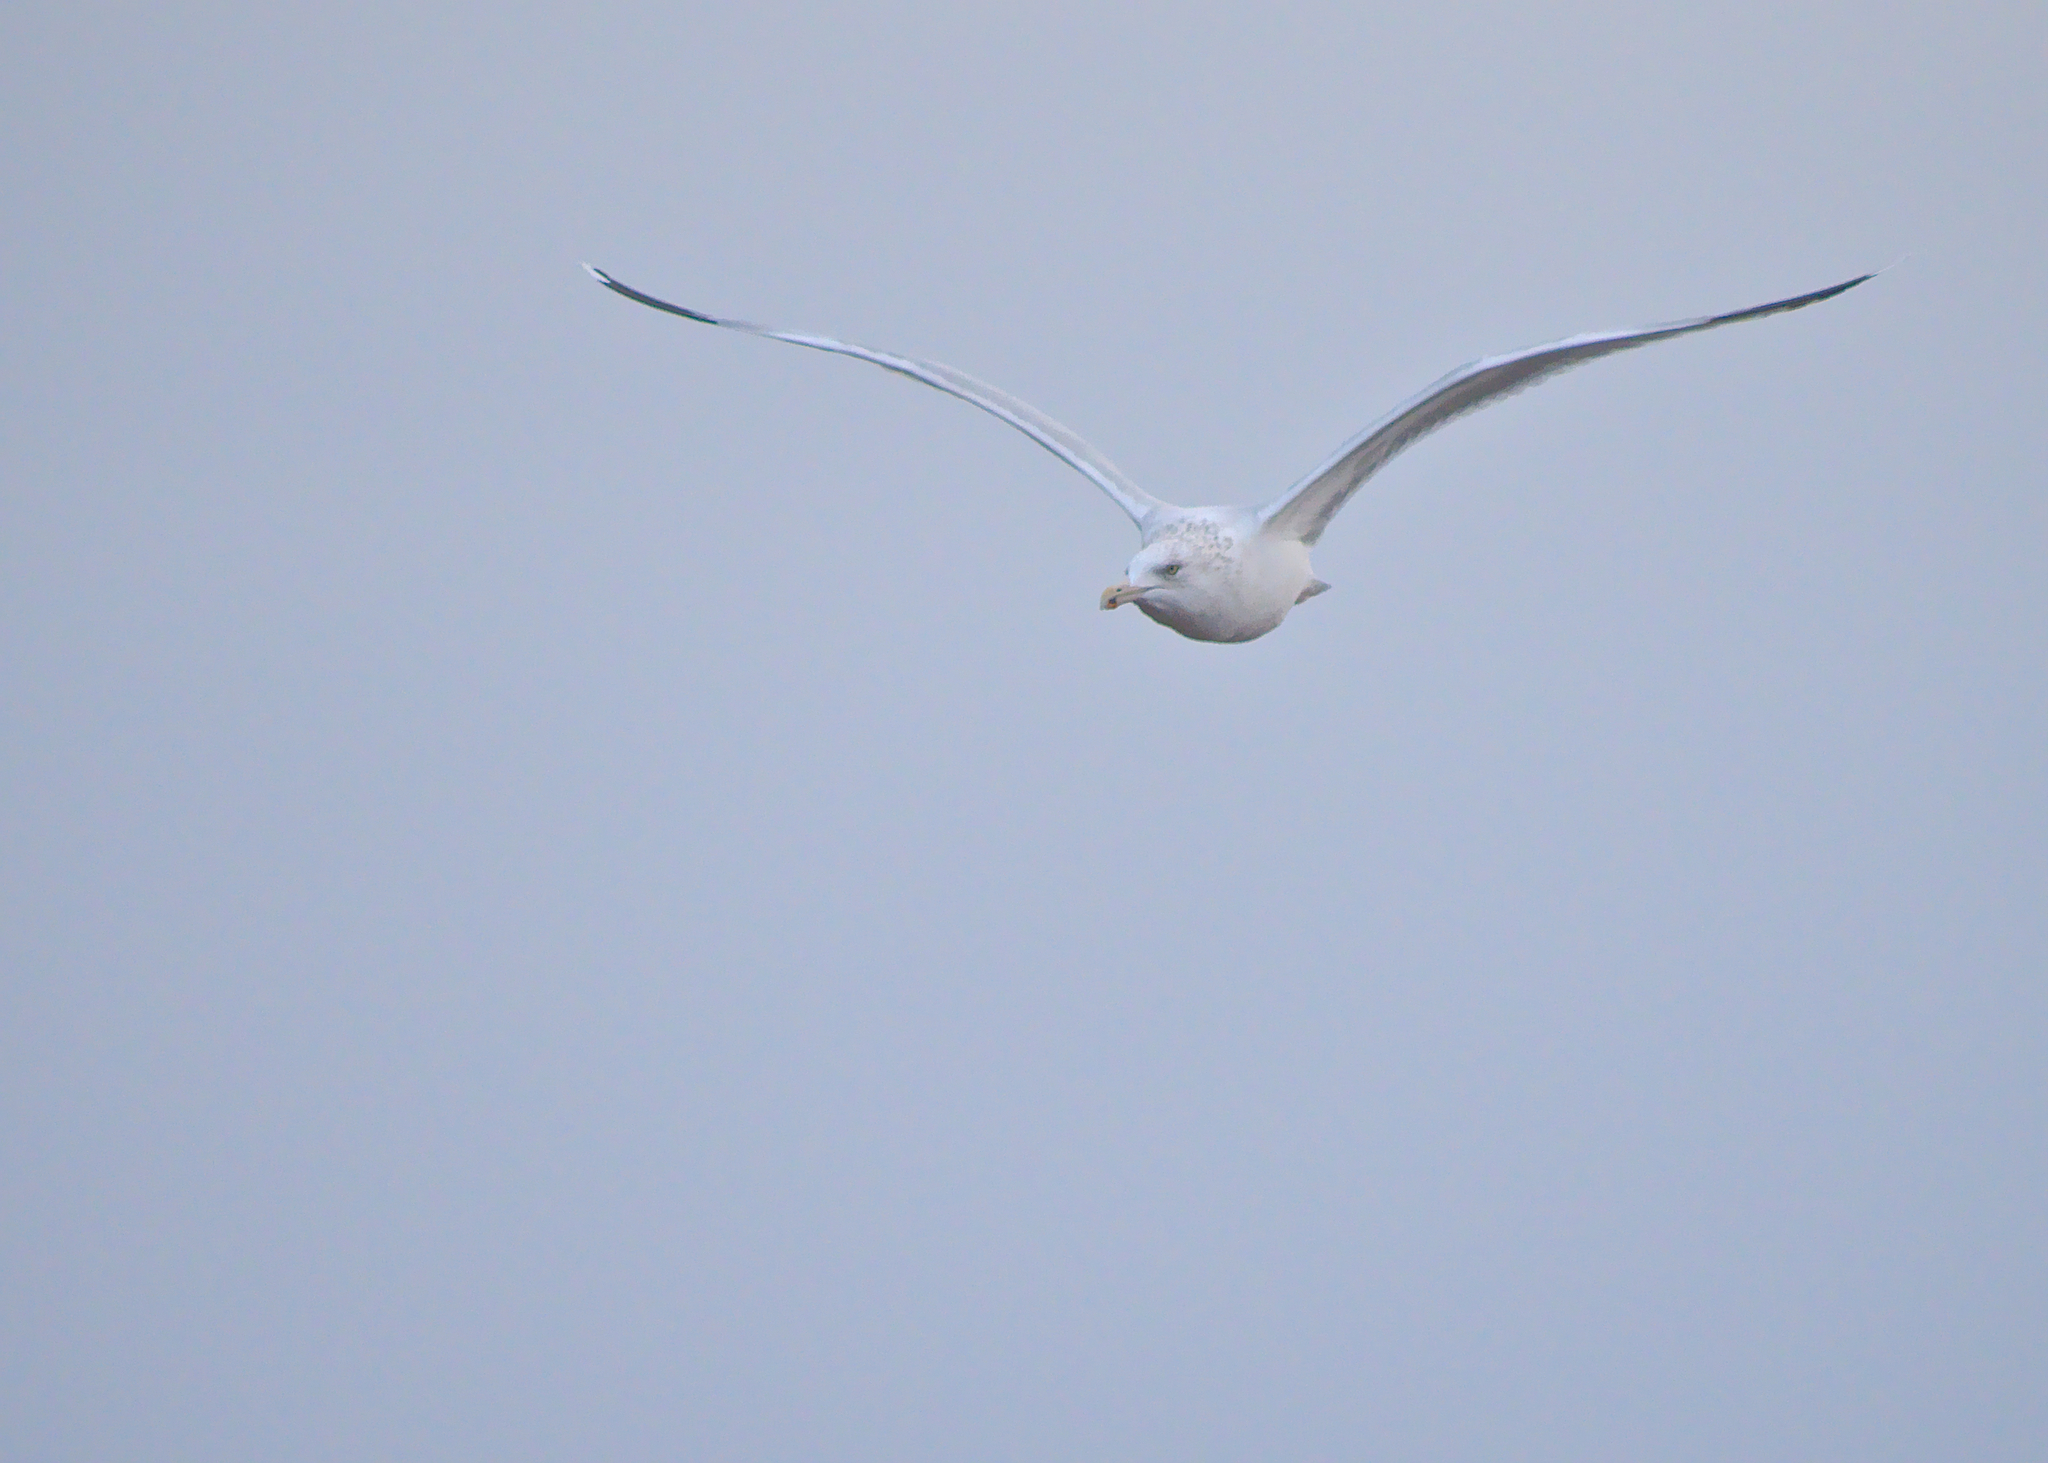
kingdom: Animalia
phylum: Chordata
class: Aves
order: Charadriiformes
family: Laridae
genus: Larus
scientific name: Larus argentatus
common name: Herring gull
